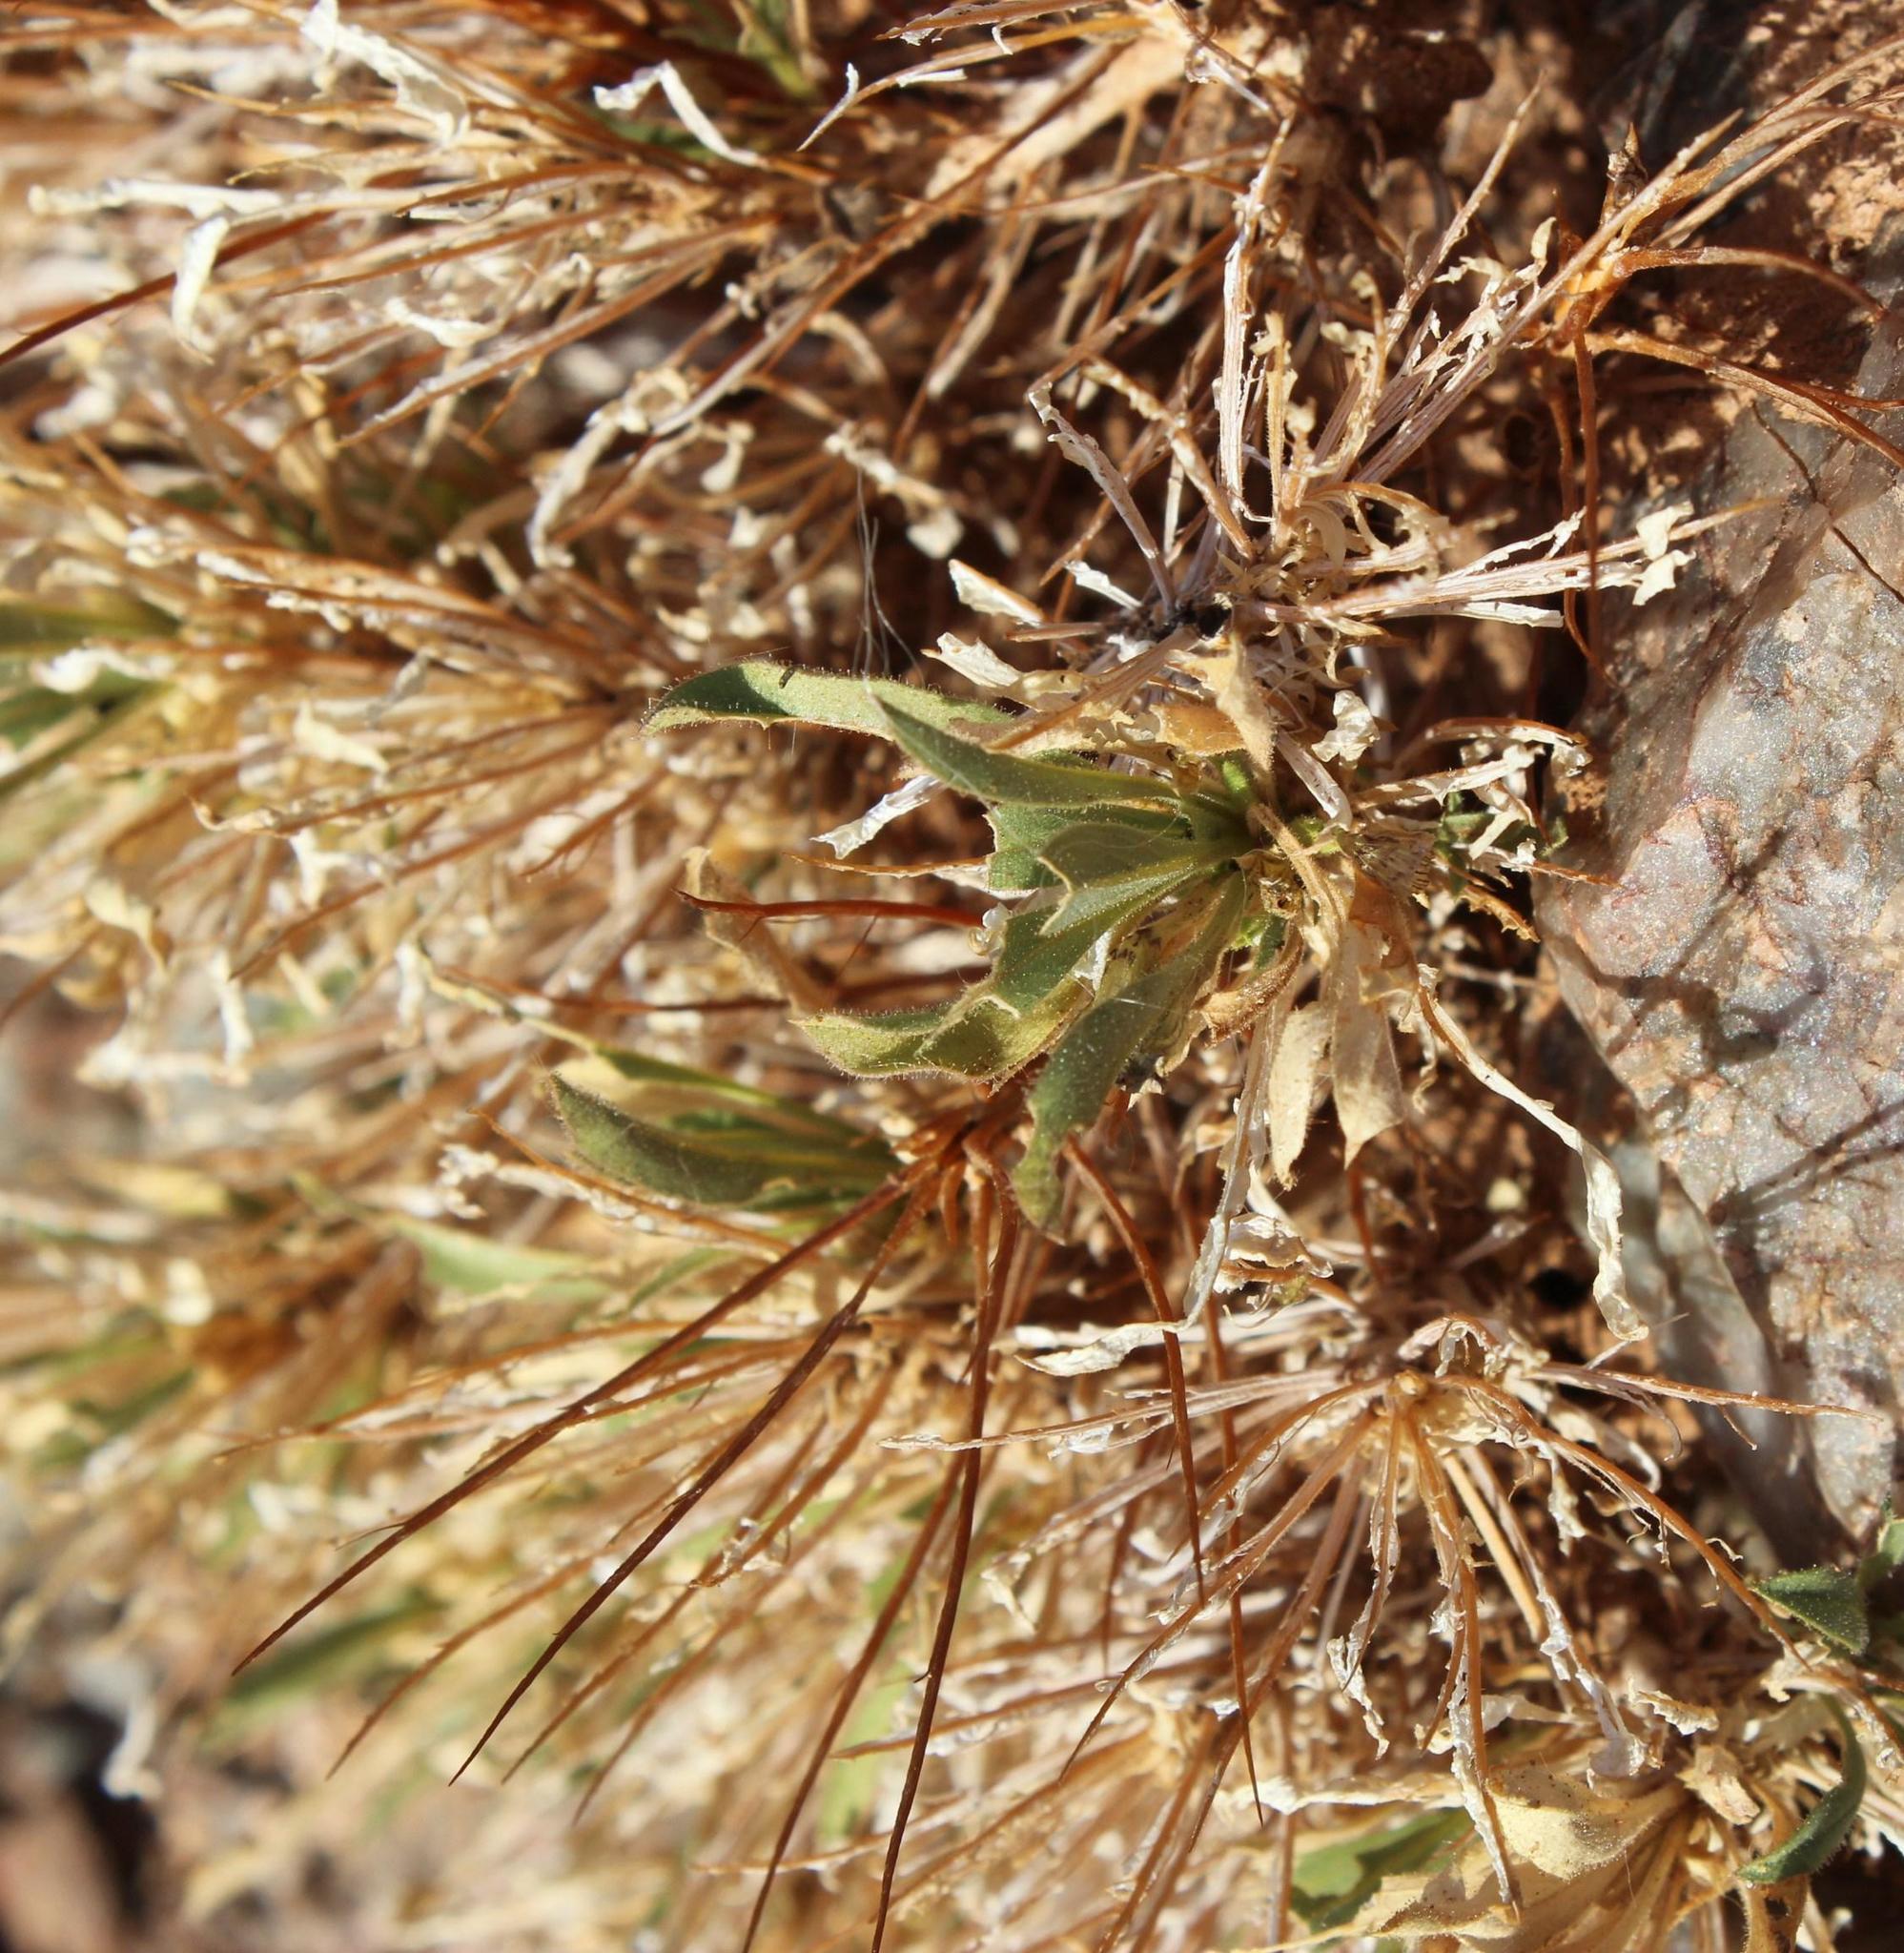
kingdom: Plantae
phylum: Tracheophyta
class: Magnoliopsida
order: Lamiales
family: Scrophulariaceae
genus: Aptosimum
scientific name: Aptosimum viscosum
